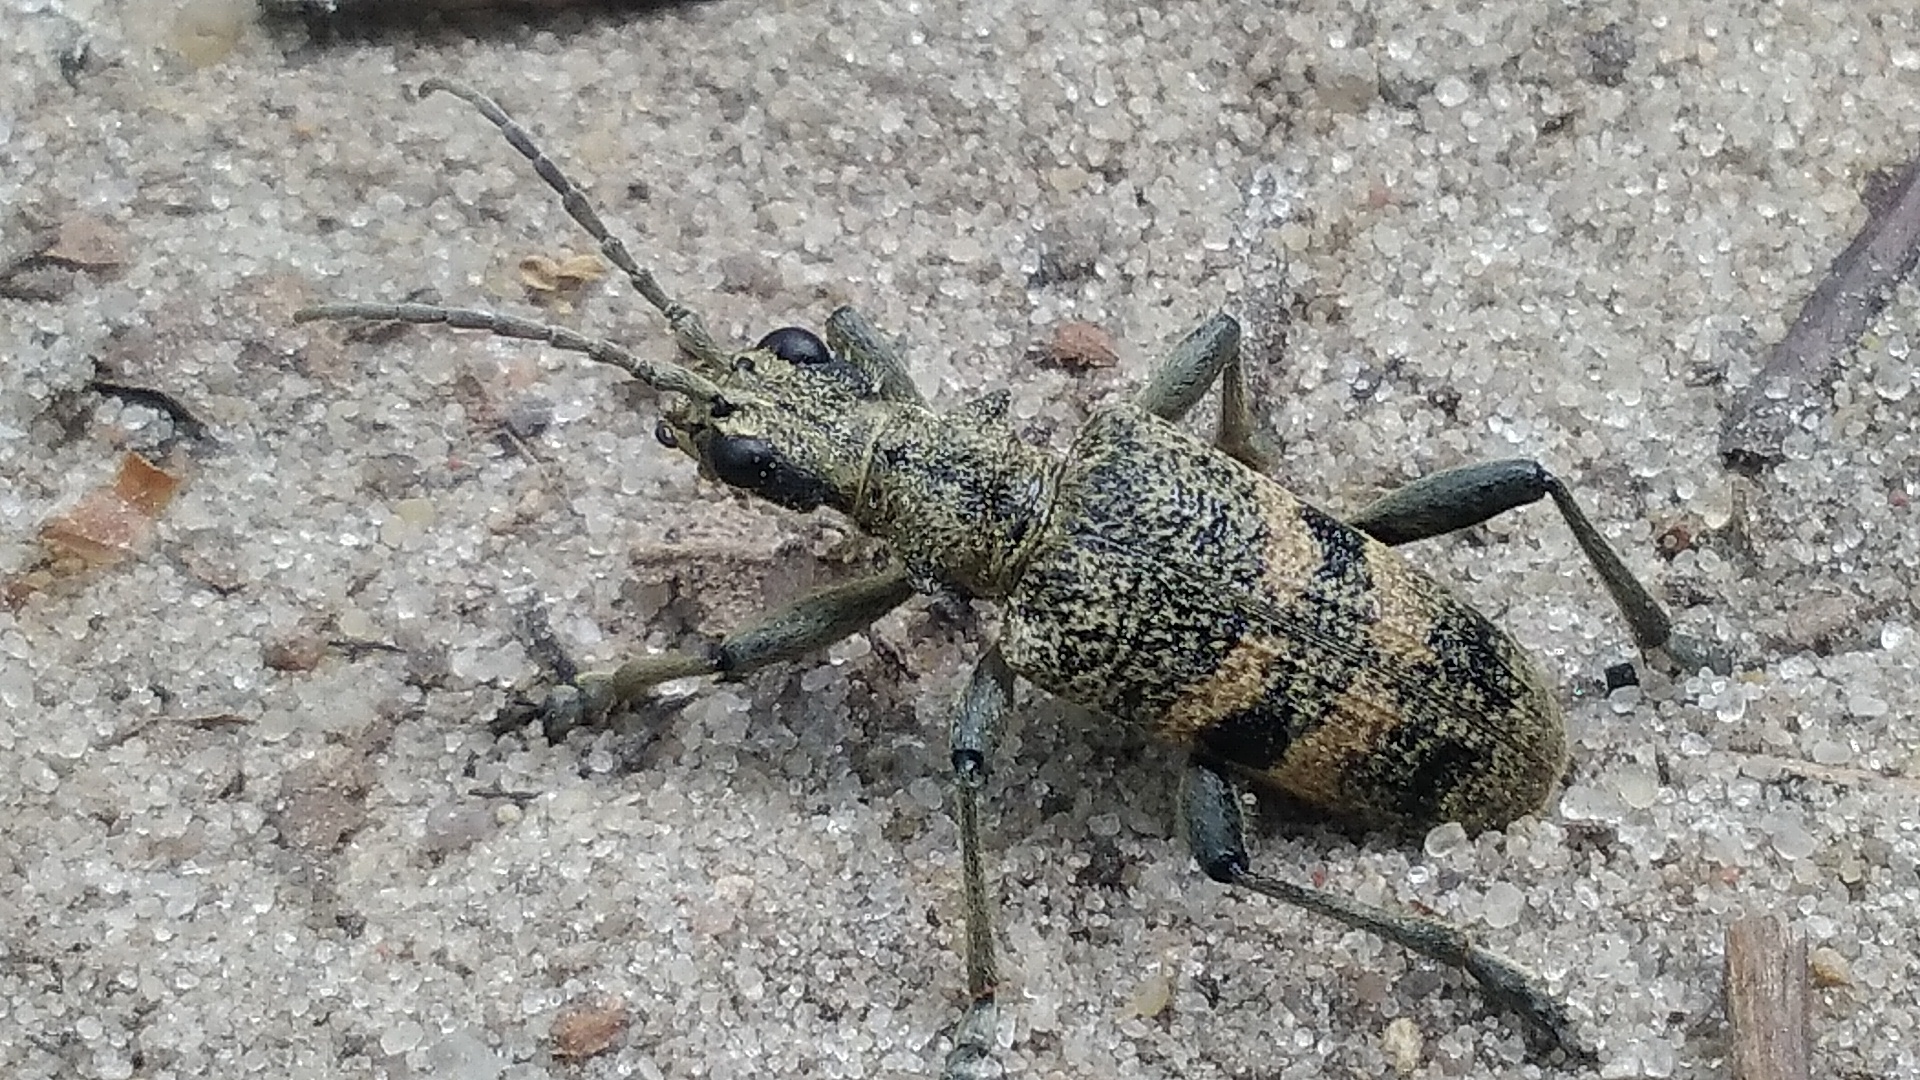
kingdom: Animalia
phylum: Arthropoda
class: Insecta
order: Coleoptera
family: Cerambycidae
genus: Rhagium
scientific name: Rhagium mordax
